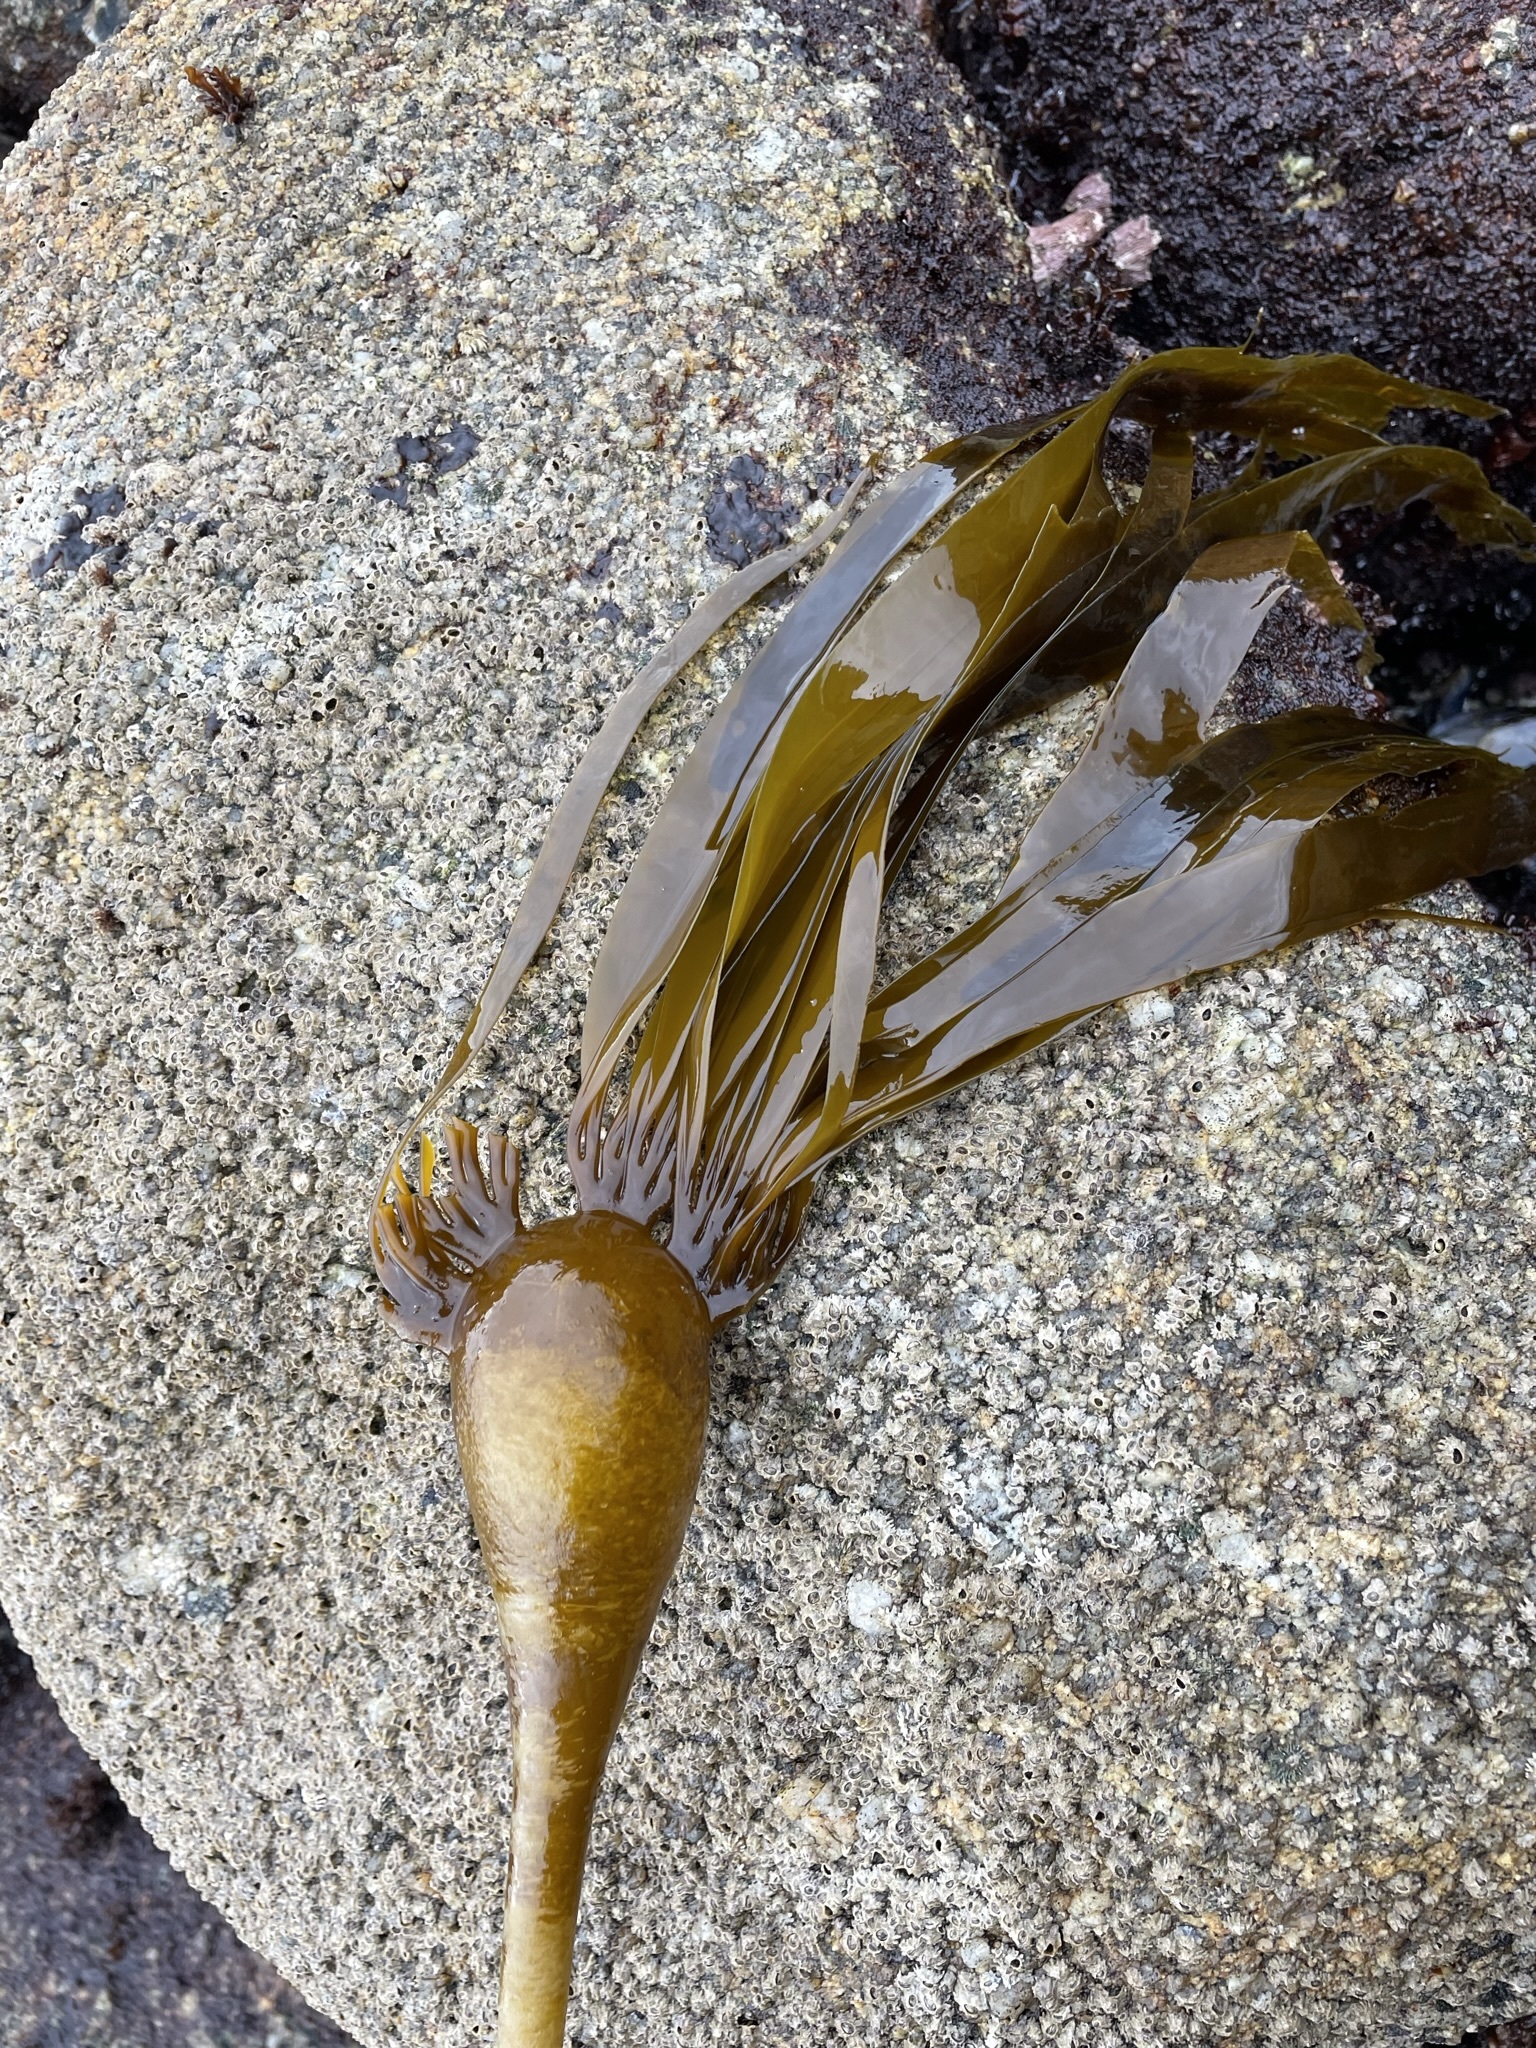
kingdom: Chromista
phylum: Ochrophyta
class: Phaeophyceae
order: Laminariales
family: Laminariaceae
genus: Nereocystis
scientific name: Nereocystis luetkeana
